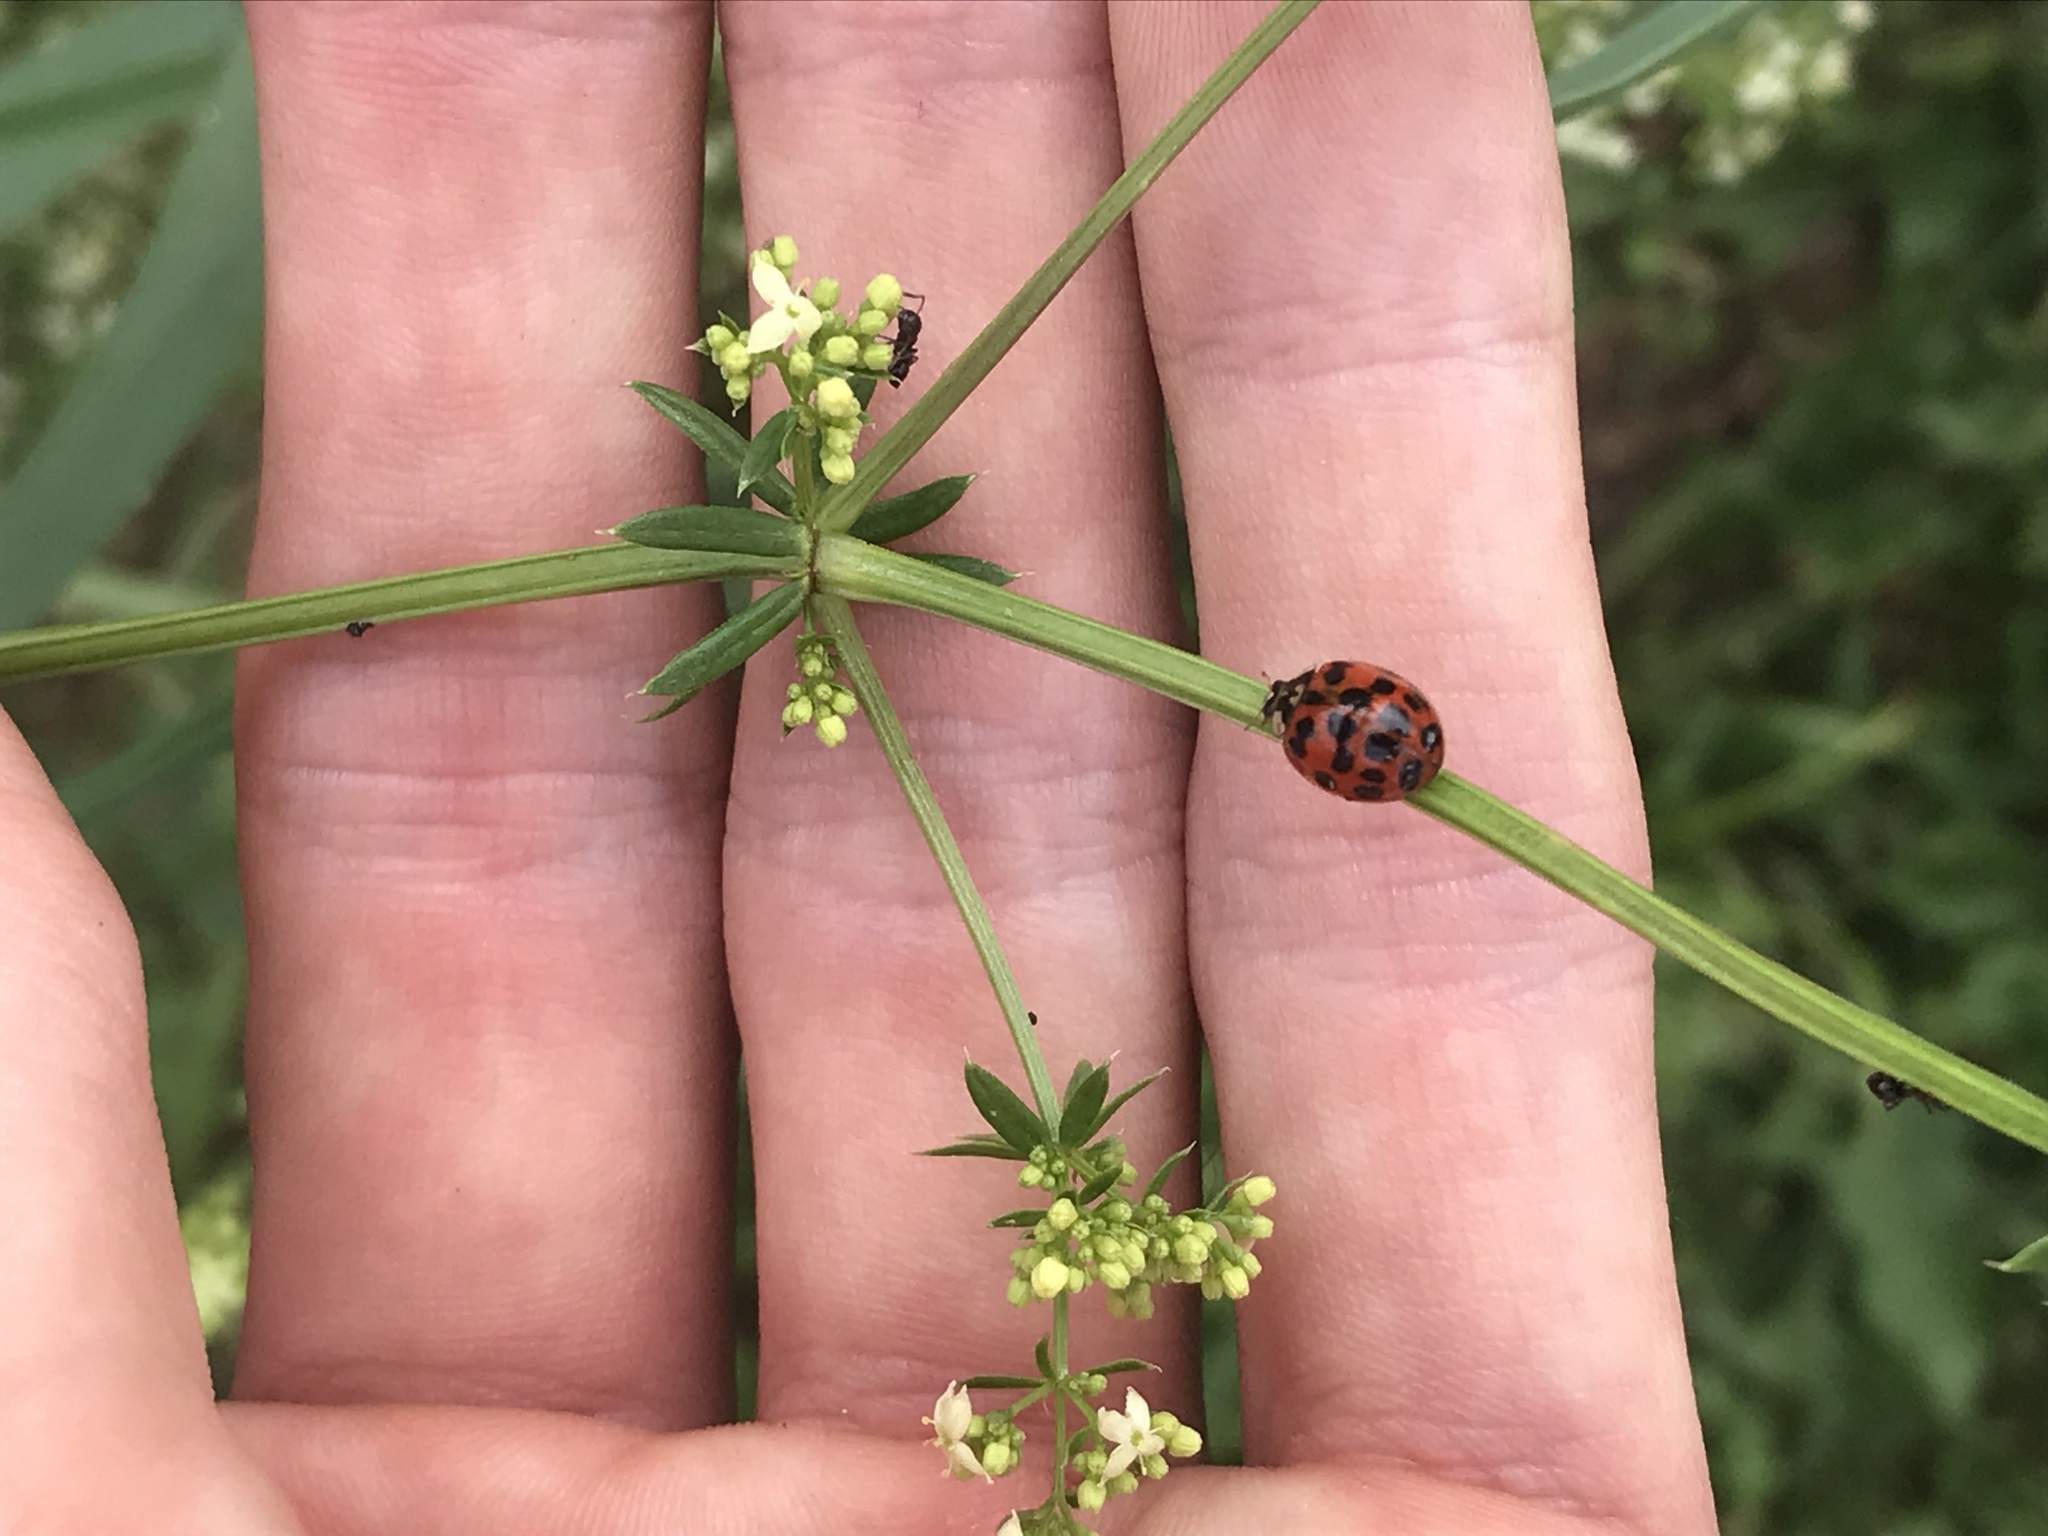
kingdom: Animalia
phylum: Arthropoda
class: Insecta
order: Coleoptera
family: Coccinellidae
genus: Harmonia
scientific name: Harmonia axyridis
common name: Harlequin ladybird
